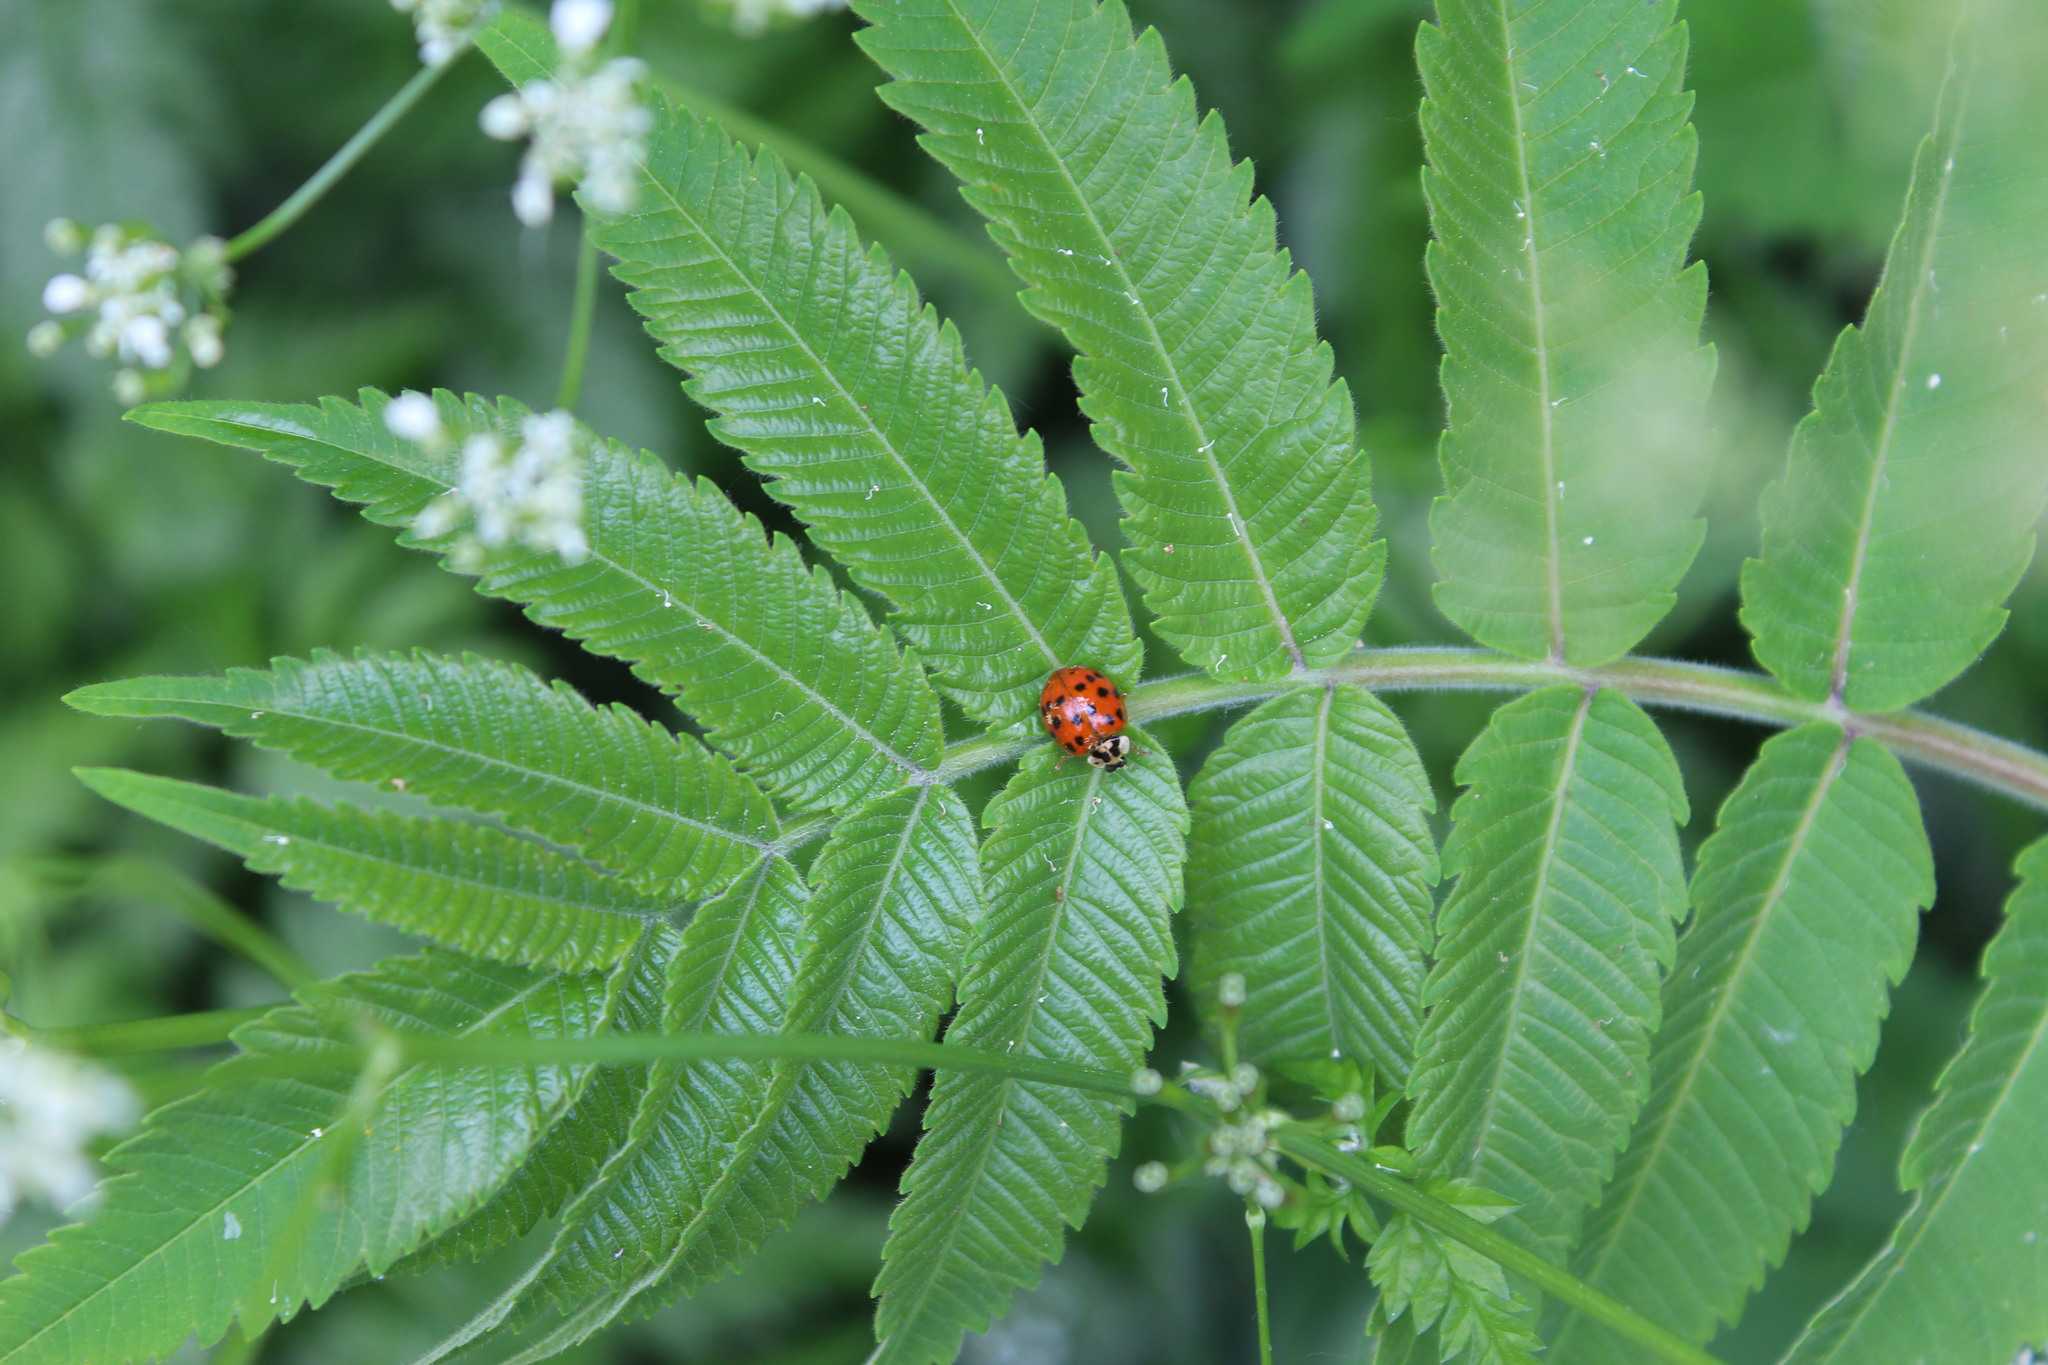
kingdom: Animalia
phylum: Arthropoda
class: Insecta
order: Coleoptera
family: Coccinellidae
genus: Harmonia
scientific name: Harmonia axyridis
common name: Harlequin ladybird
